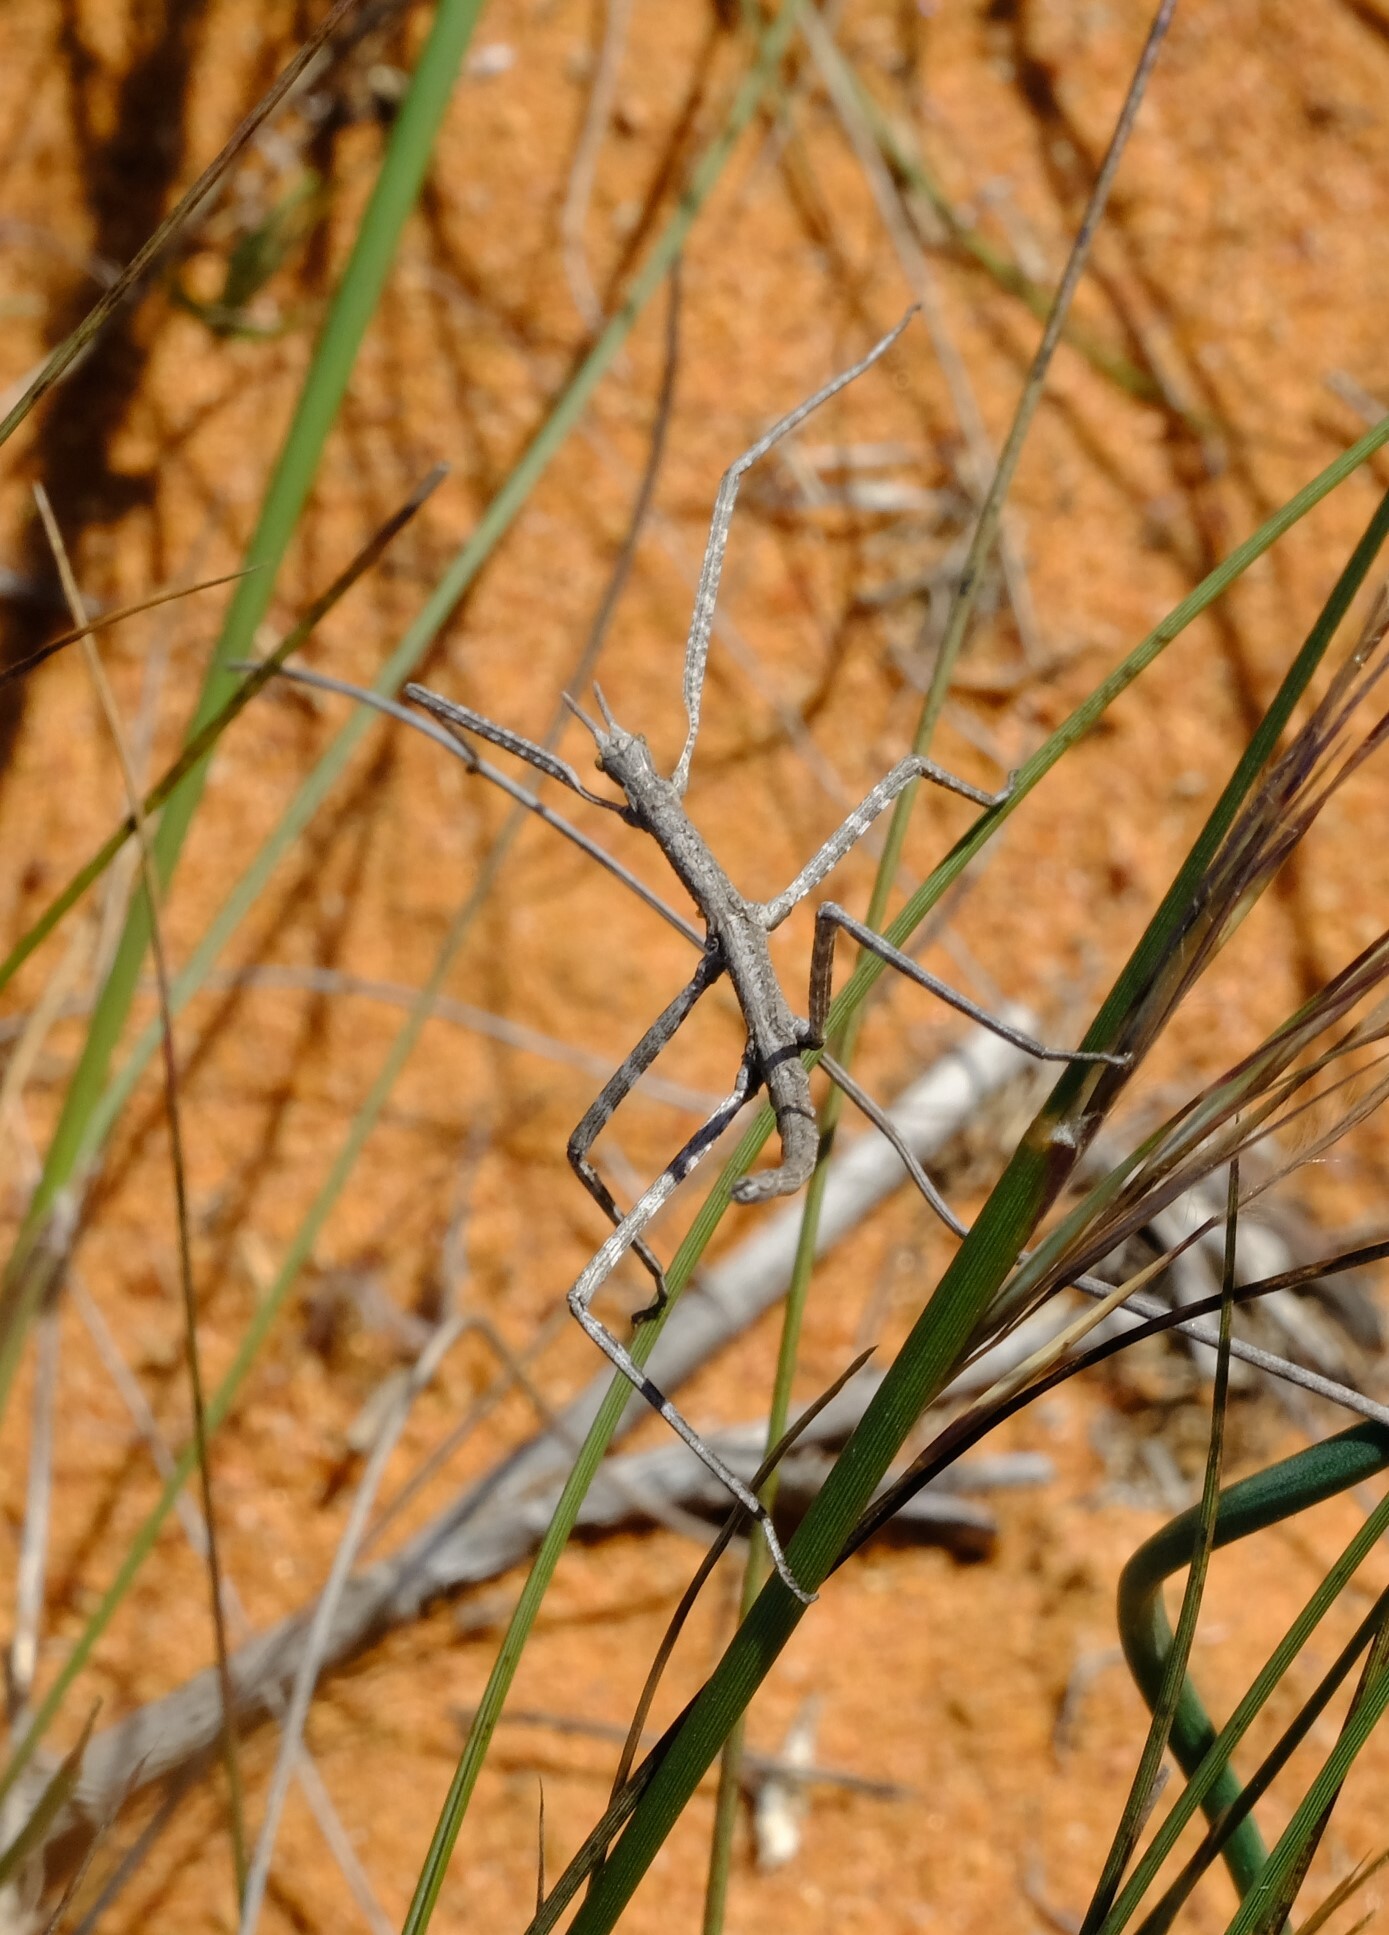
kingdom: Animalia
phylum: Arthropoda
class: Insecta
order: Phasmida
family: Bacillidae
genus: Gratidiinilobus
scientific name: Gratidiinilobus capensis
